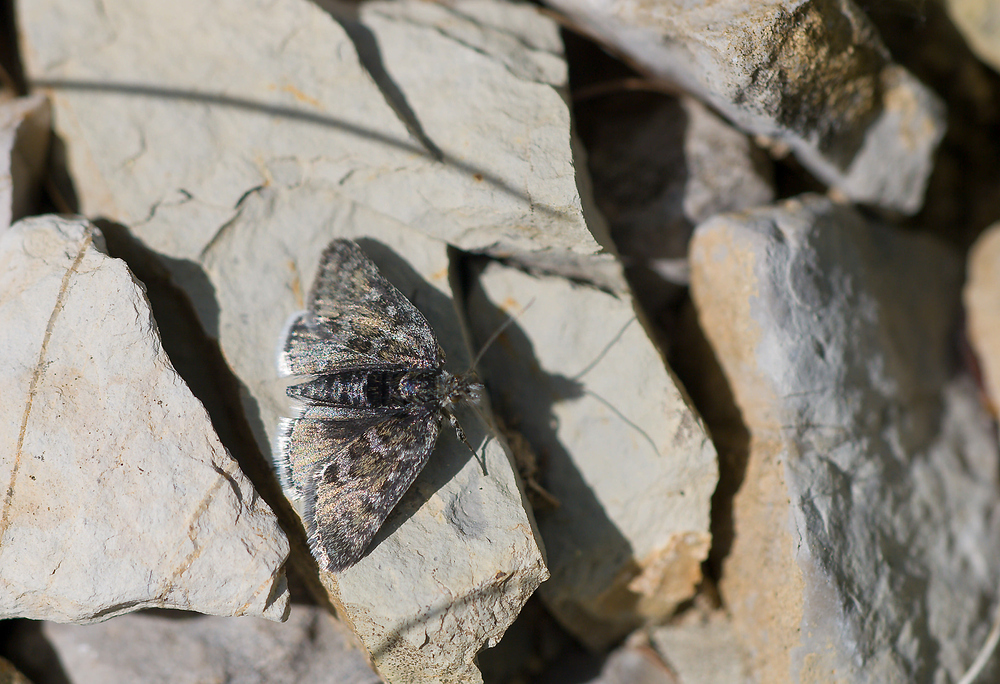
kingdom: Animalia
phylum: Arthropoda
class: Insecta
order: Lepidoptera
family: Crambidae
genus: Metaxmeste
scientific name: Metaxmeste phrygialis
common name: Black mountain pearl
